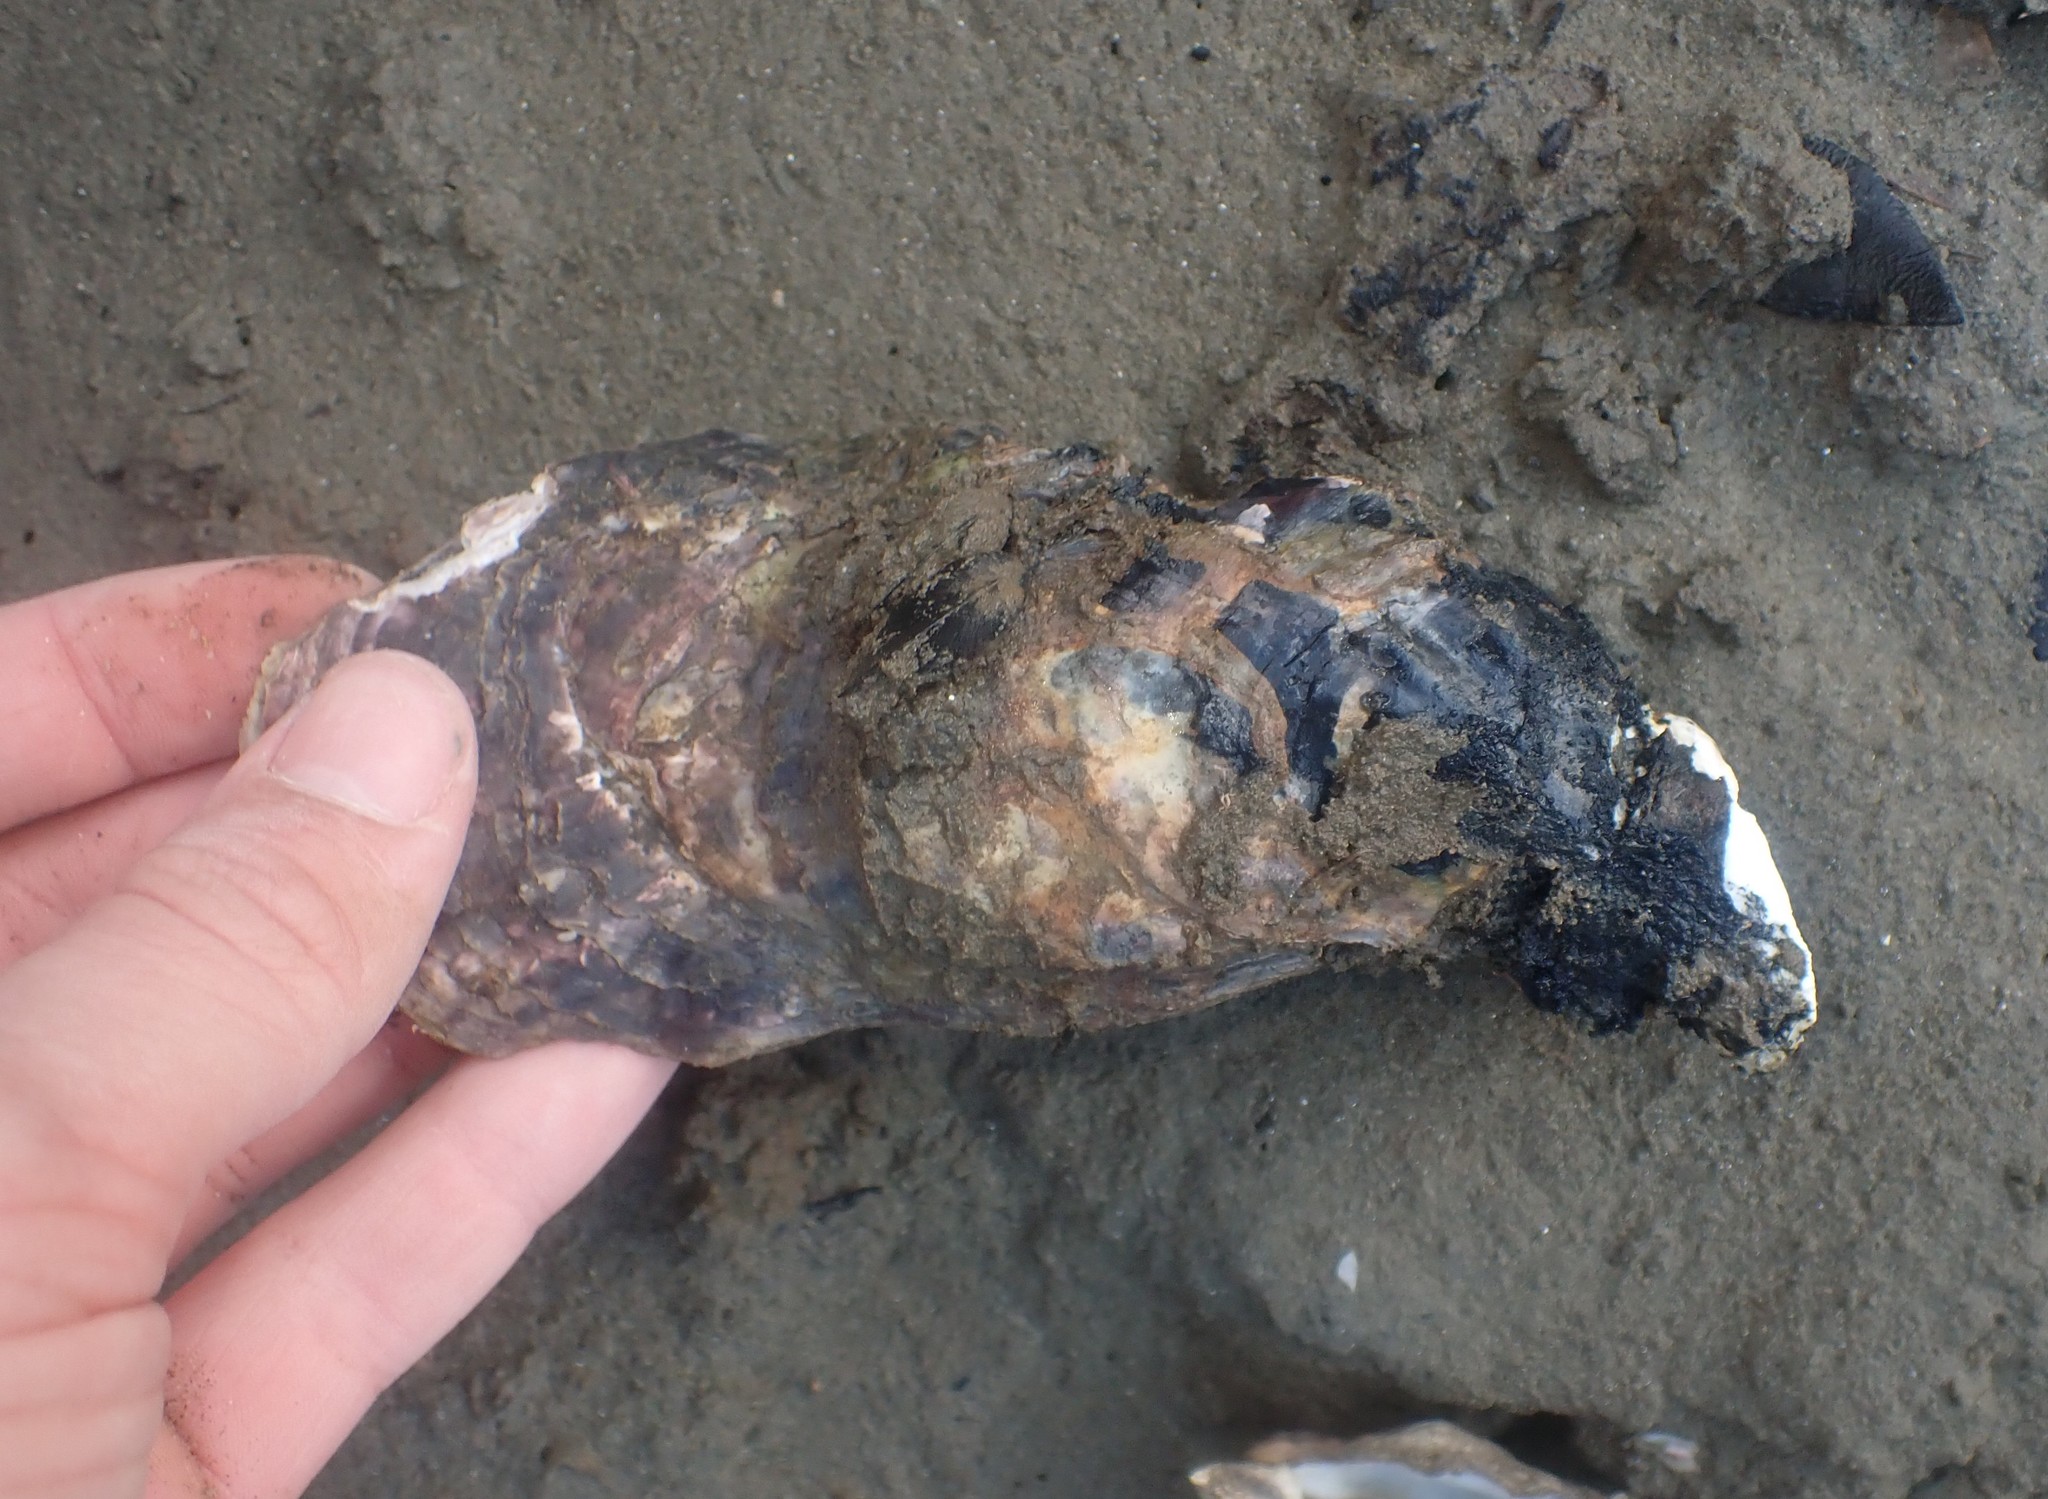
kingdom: Animalia
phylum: Mollusca
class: Bivalvia
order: Ostreida
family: Ostreidae
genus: Magallana
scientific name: Magallana gigas
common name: Pacific oyster
